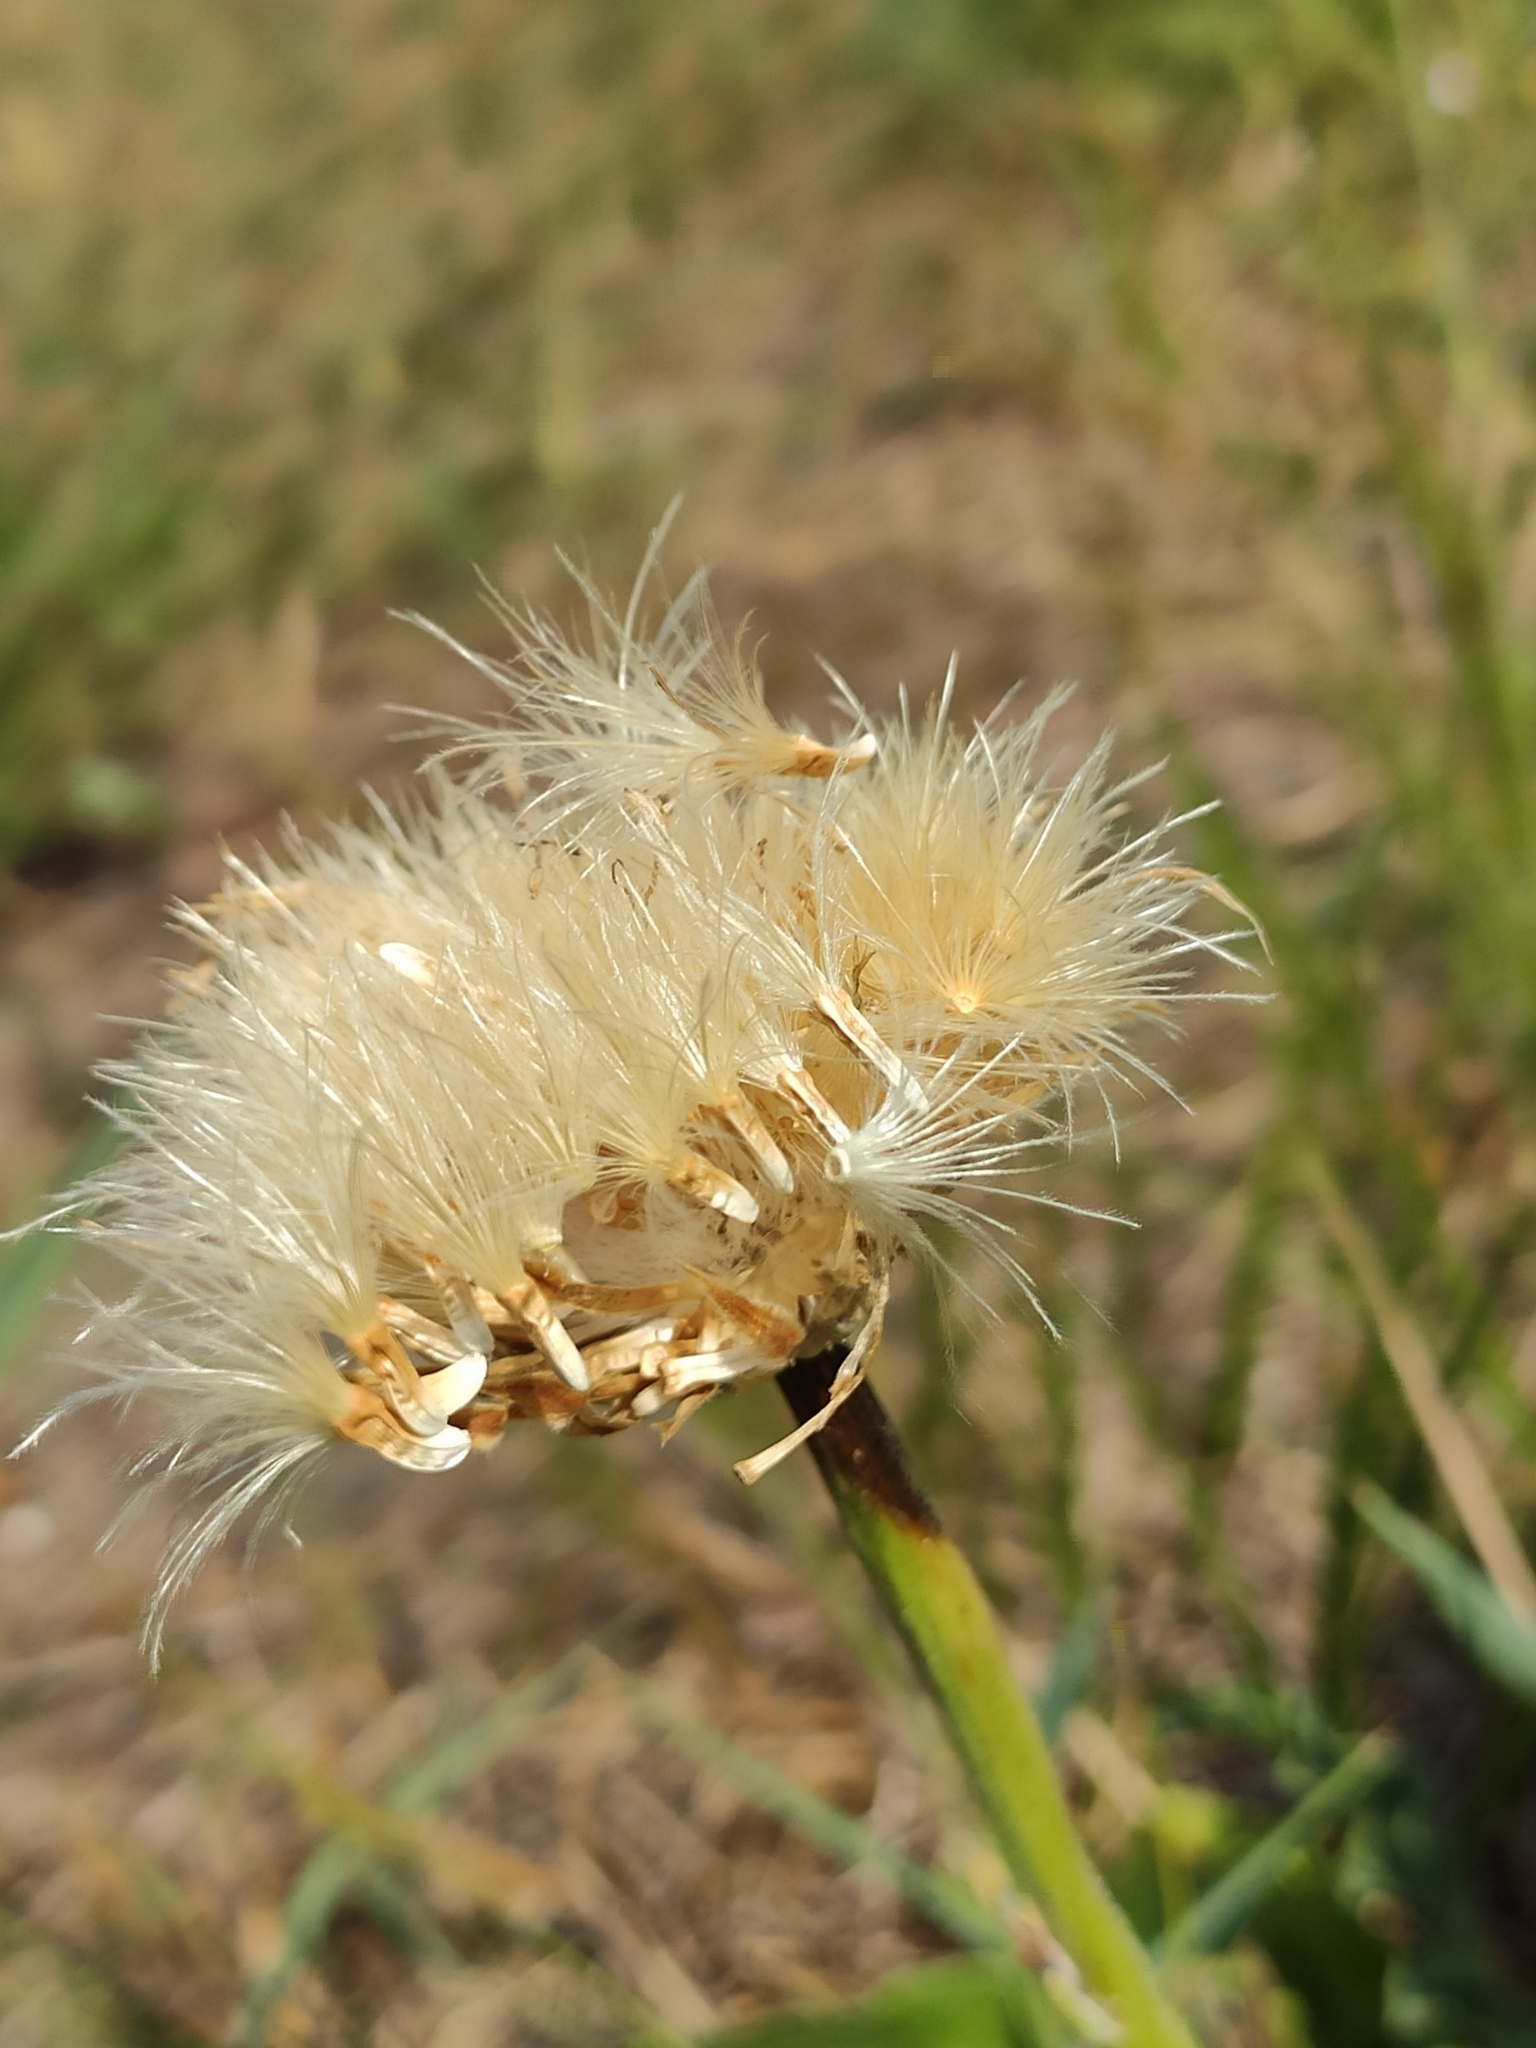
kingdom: Plantae
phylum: Tracheophyta
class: Magnoliopsida
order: Asterales
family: Asteraceae
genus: Leuzea
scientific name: Leuzea carthamoides
